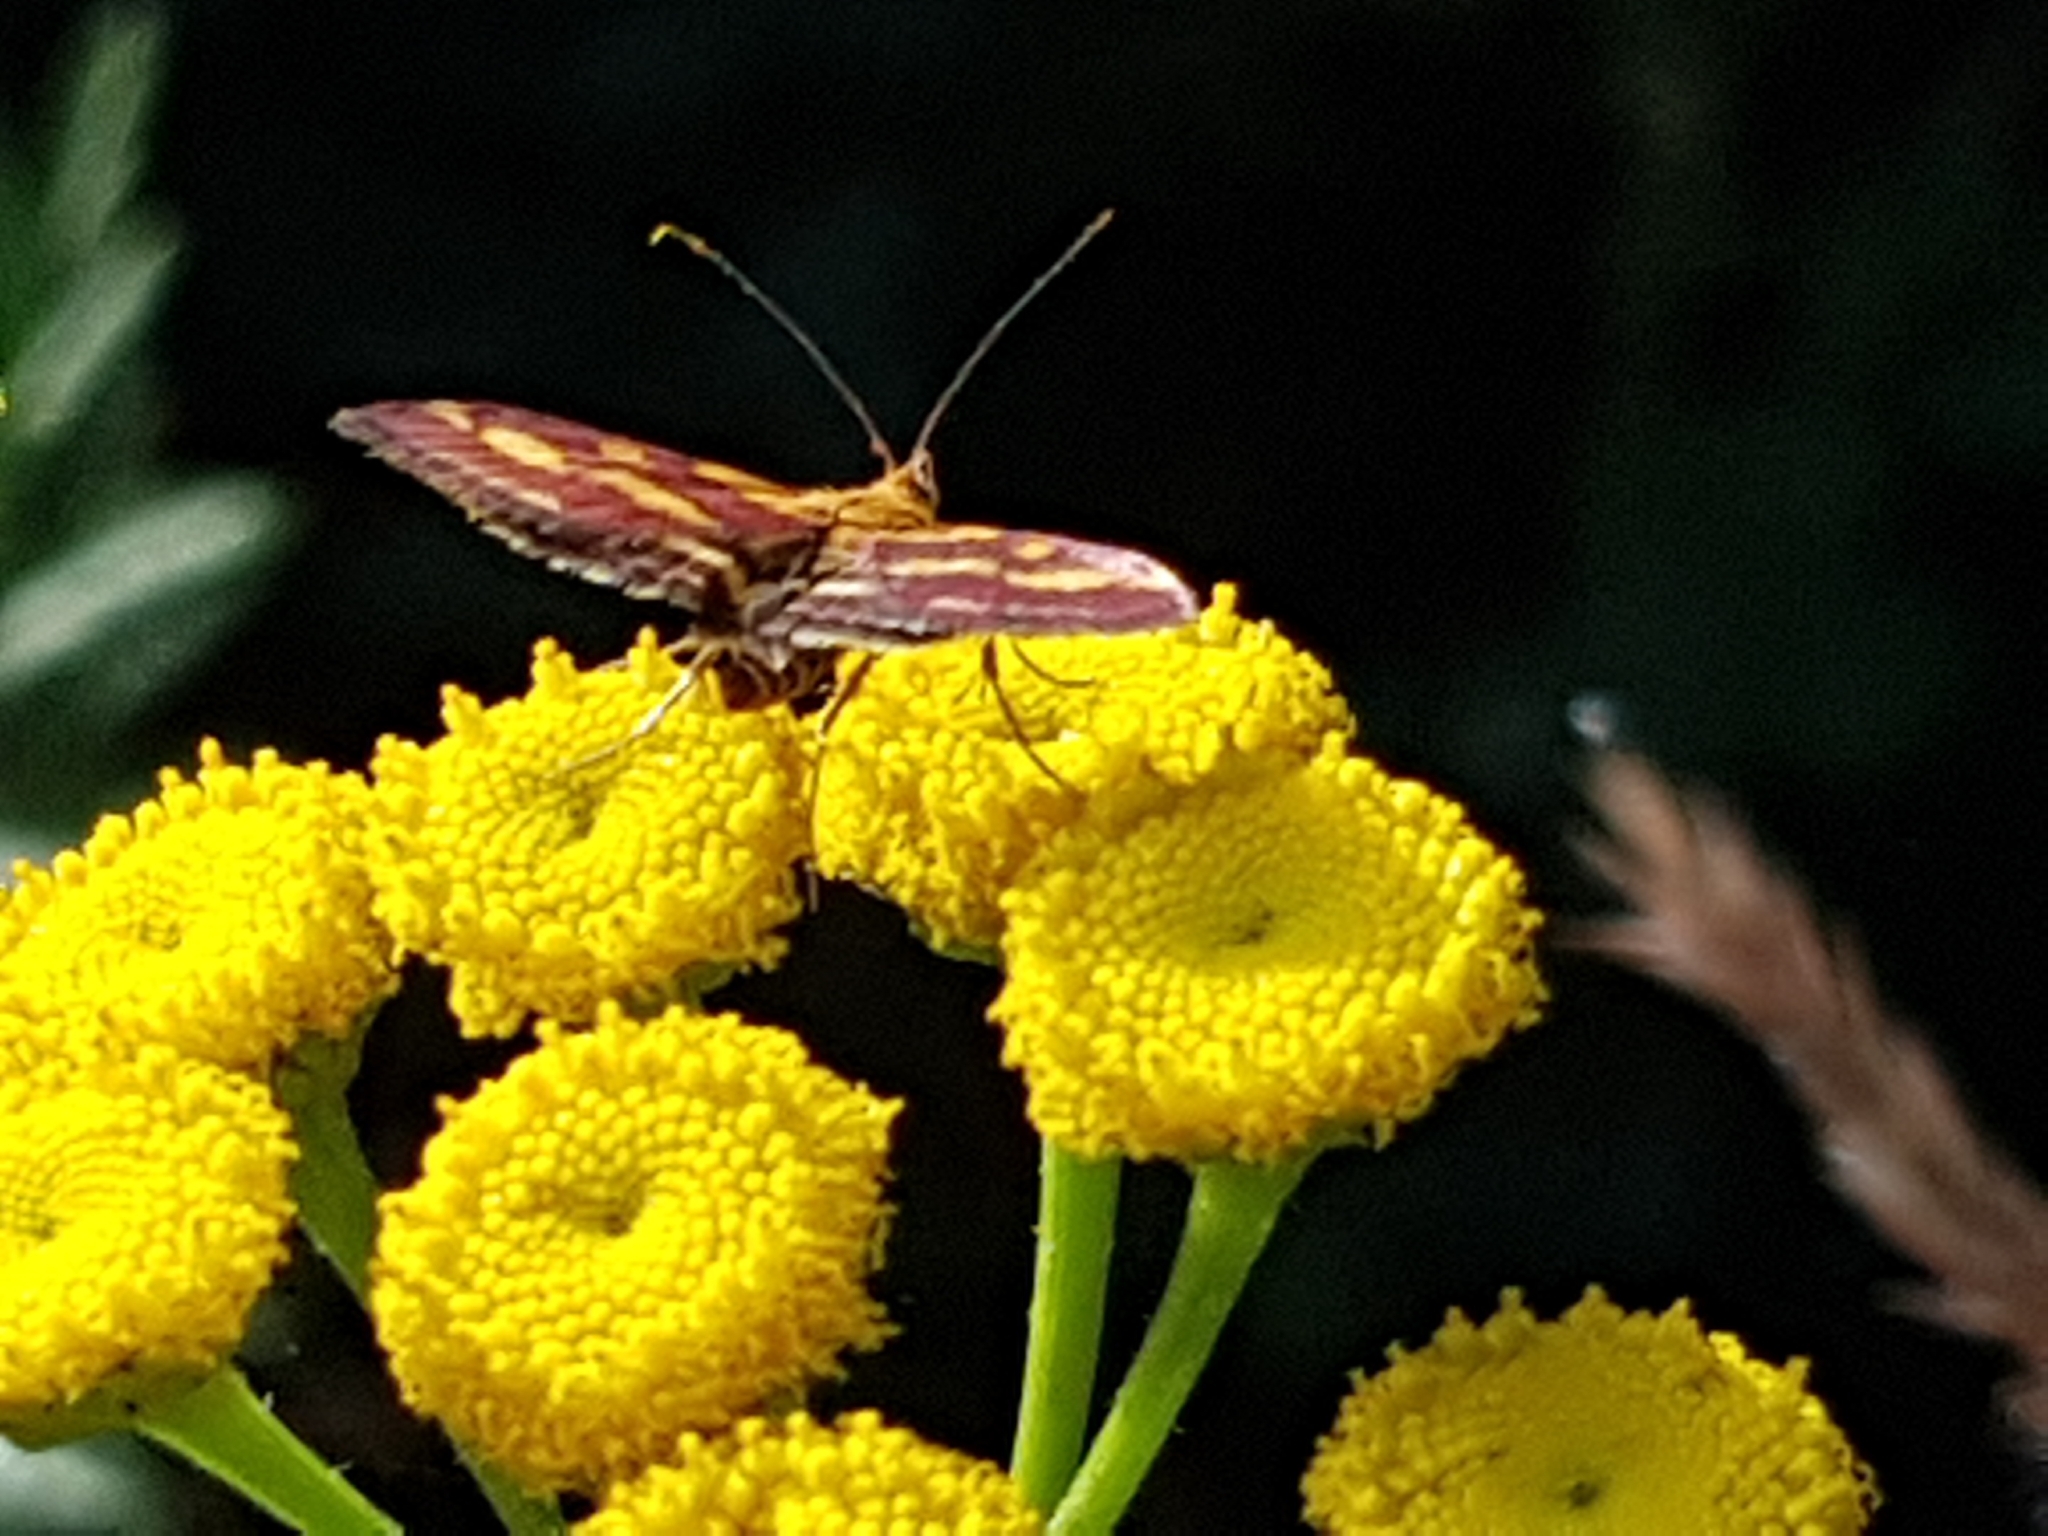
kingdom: Animalia
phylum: Arthropoda
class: Insecta
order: Lepidoptera
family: Crambidae
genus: Pyrausta
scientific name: Pyrausta purpuralis
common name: Common purple & gold
